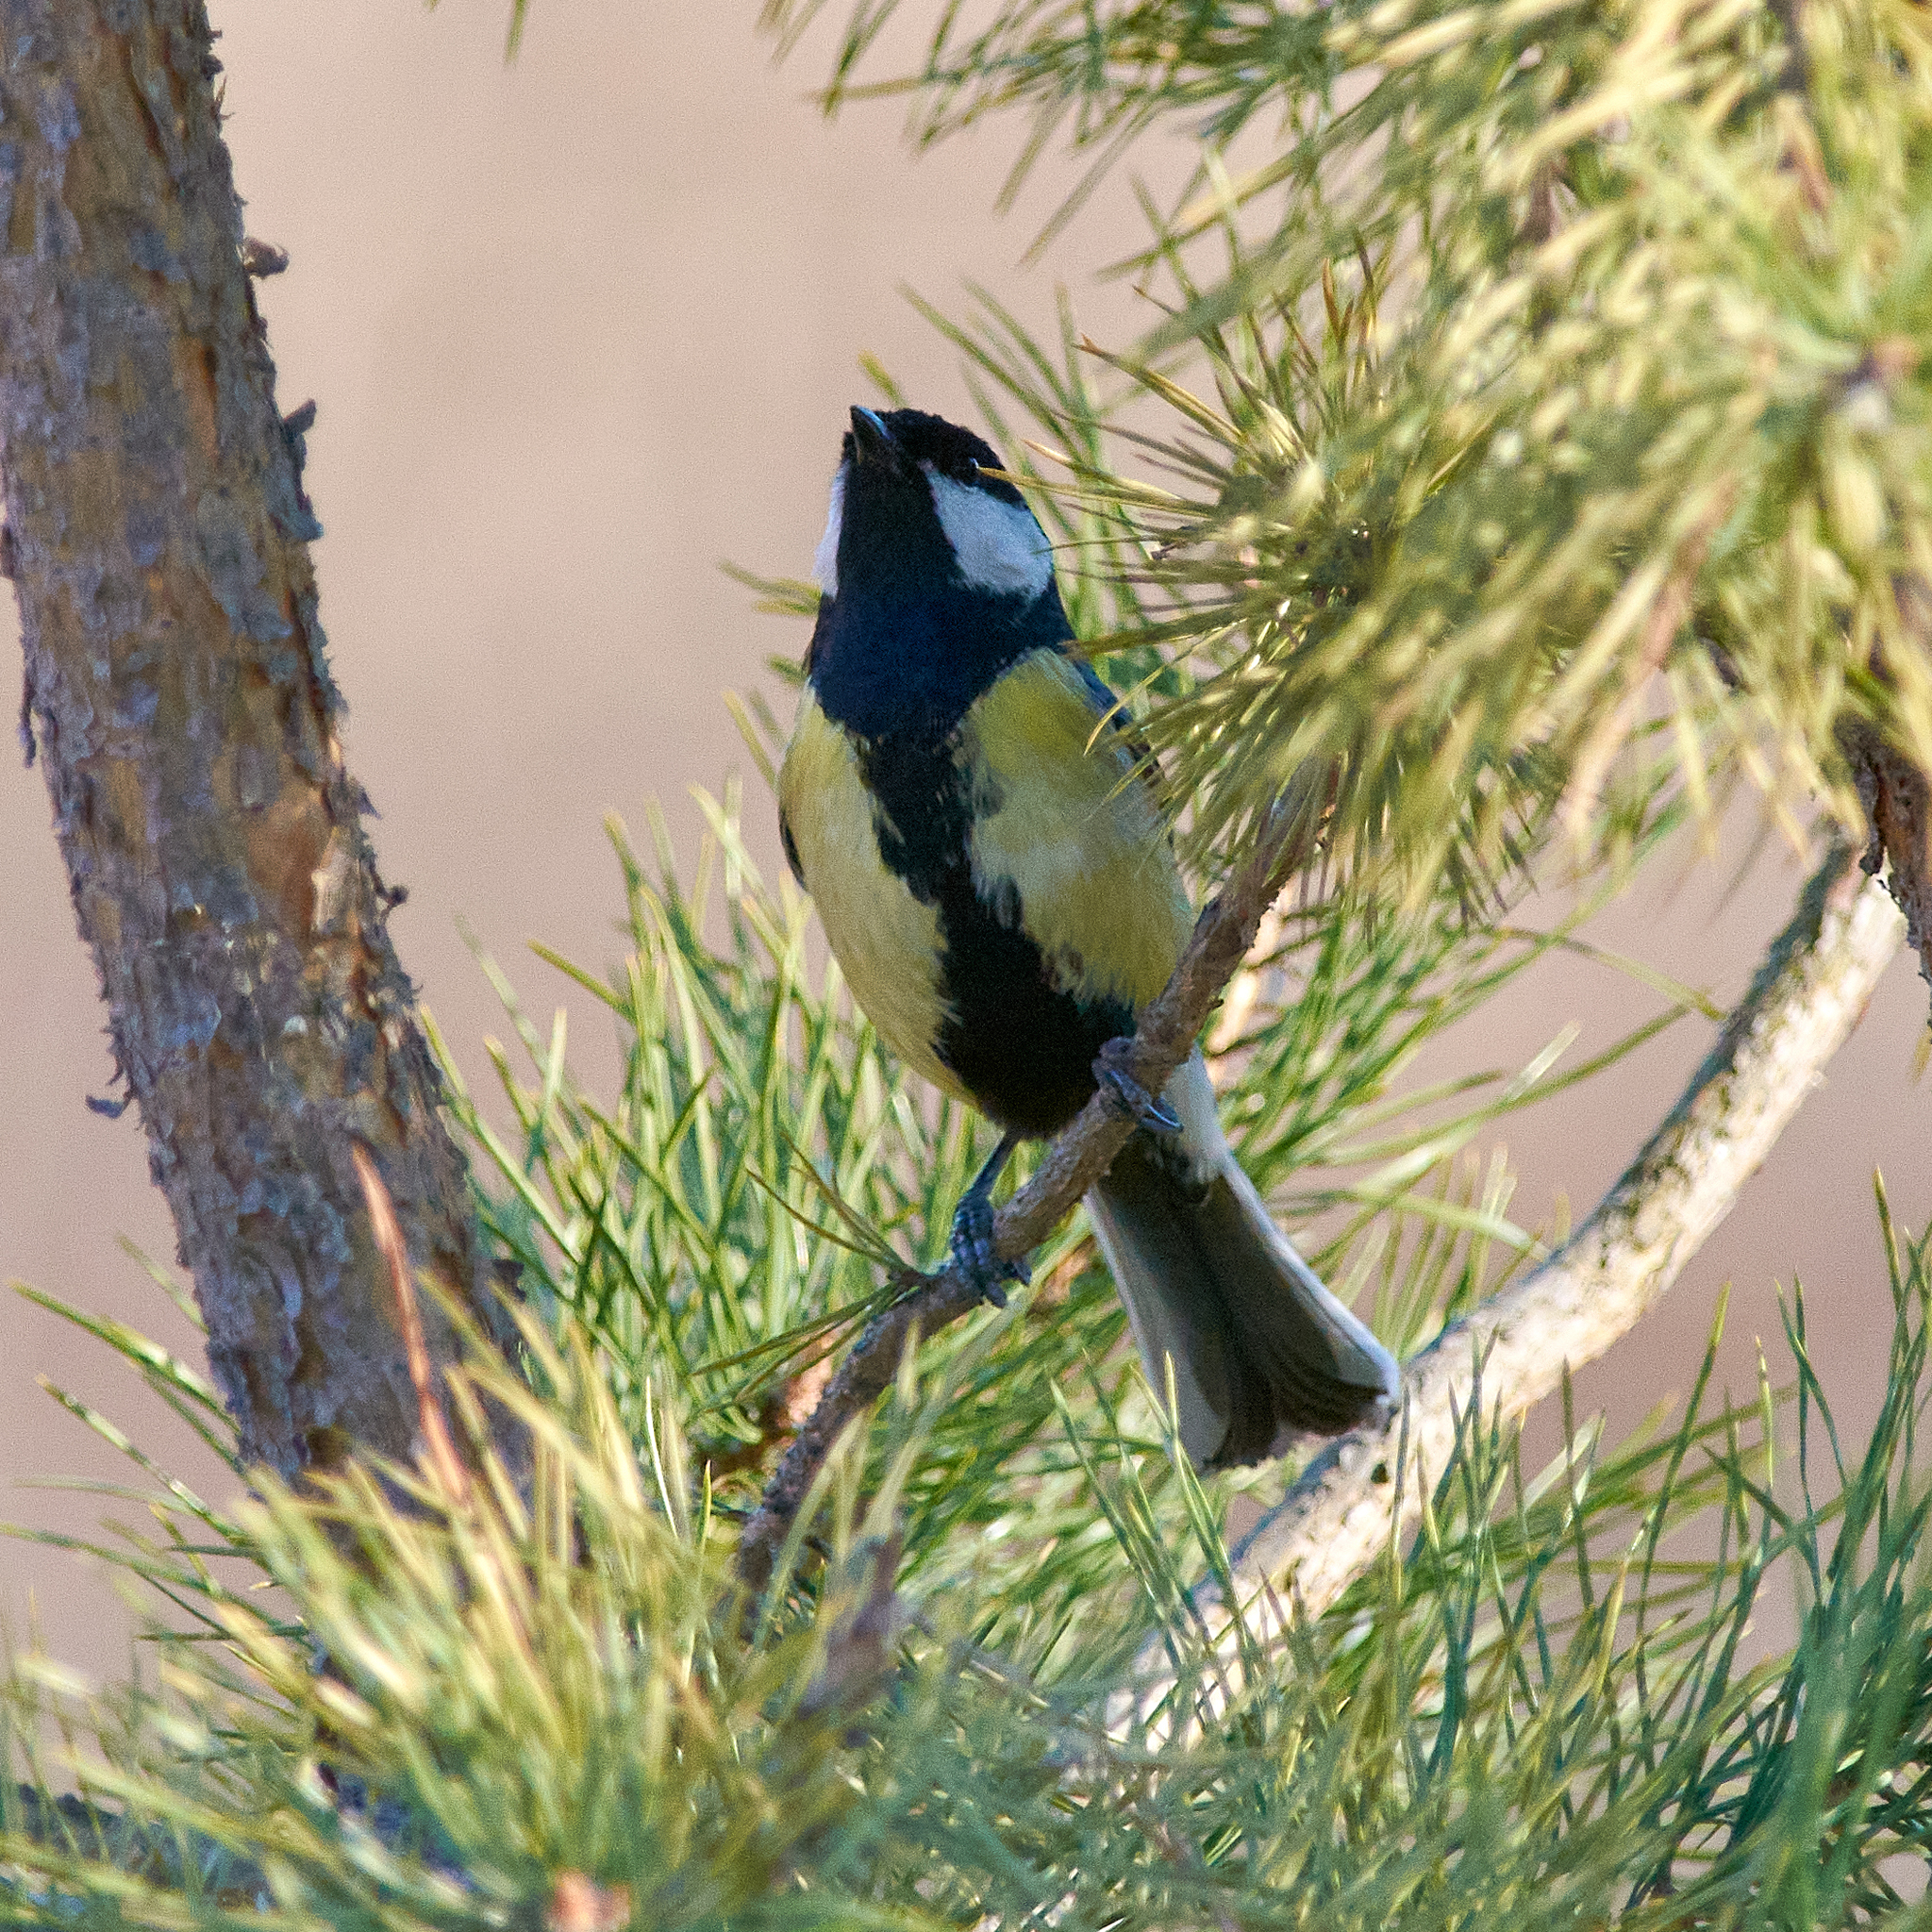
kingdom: Animalia
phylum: Chordata
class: Aves
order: Passeriformes
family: Paridae
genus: Parus
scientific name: Parus major
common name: Great tit
